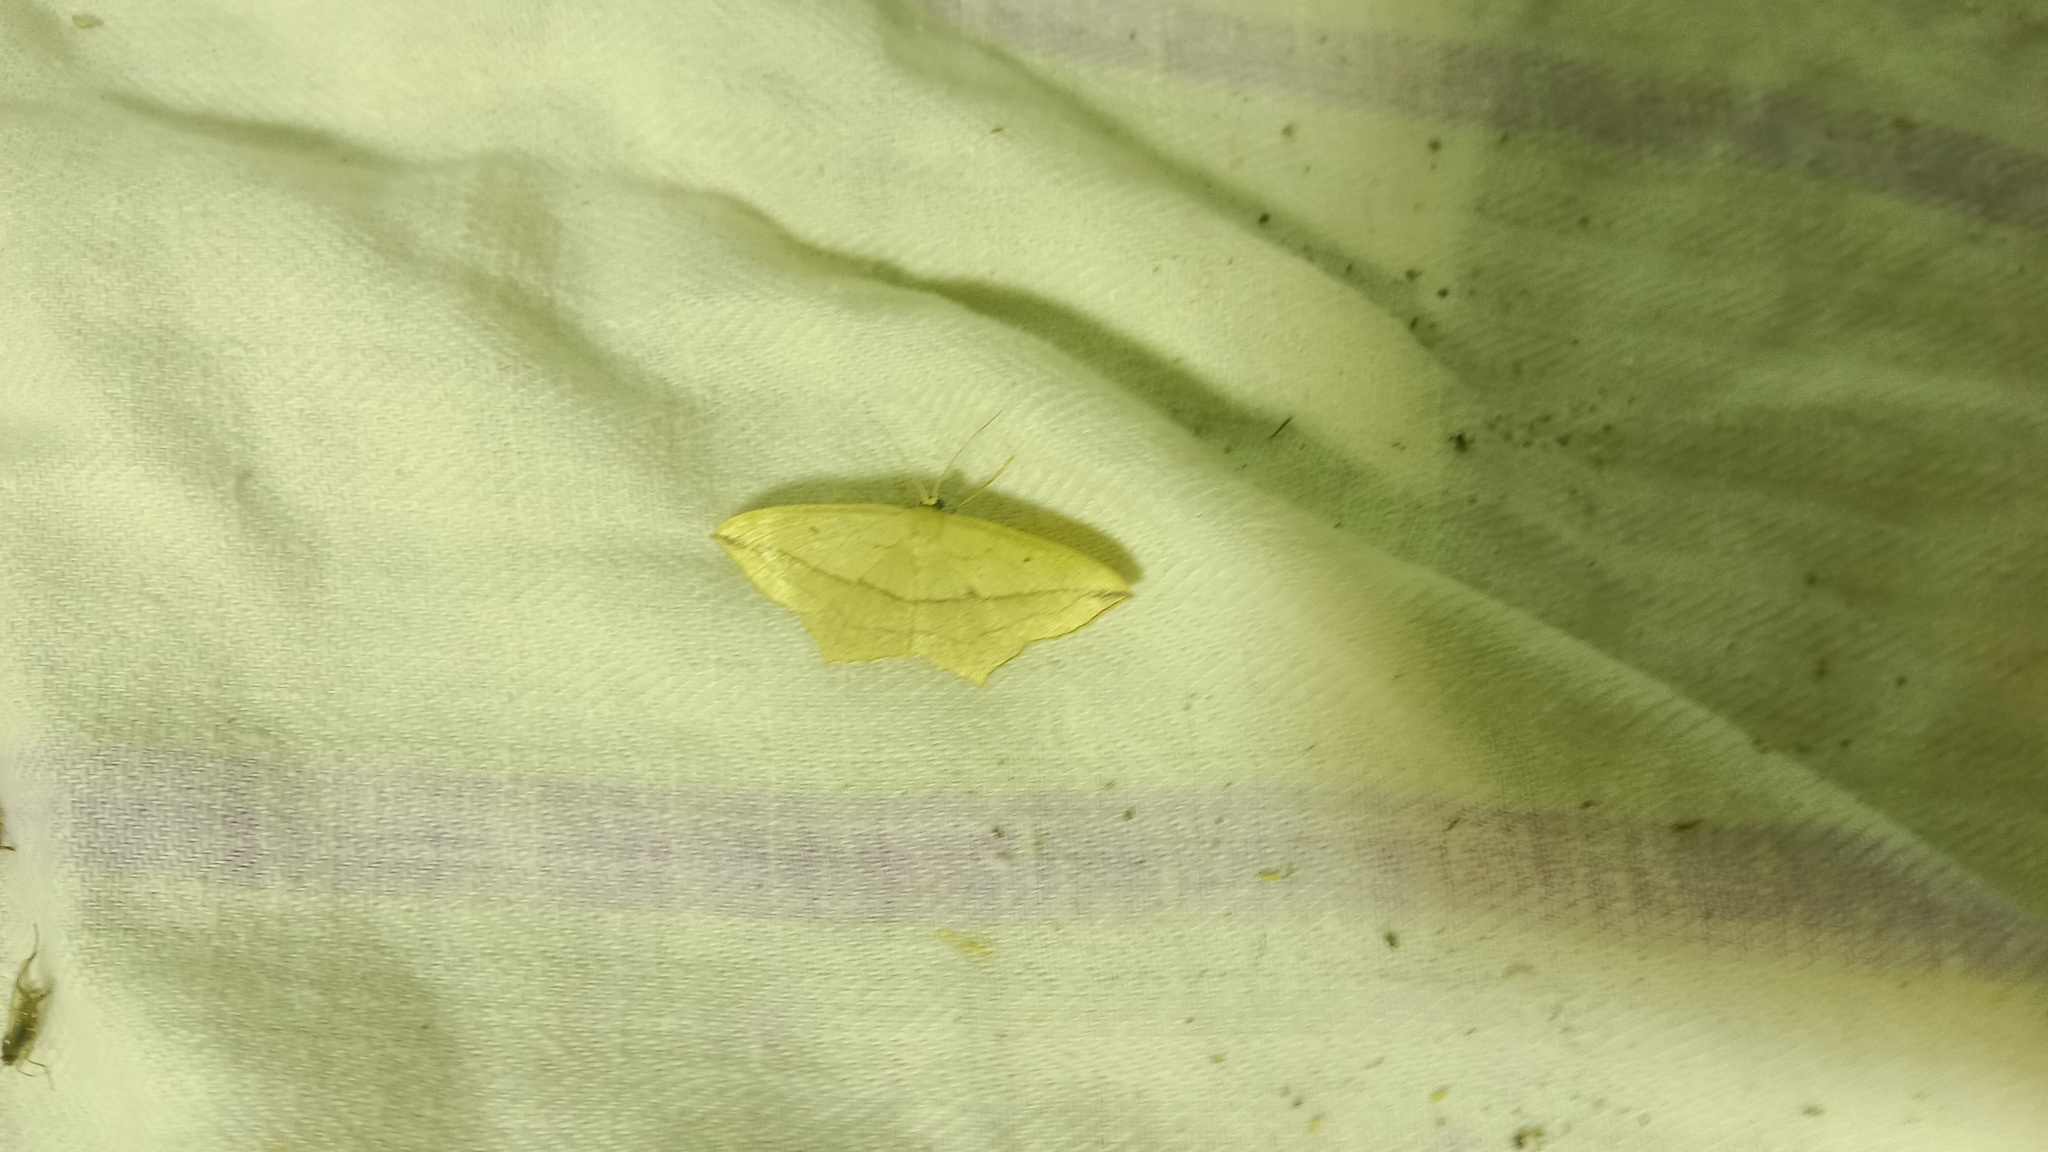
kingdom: Animalia
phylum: Arthropoda
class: Insecta
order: Lepidoptera
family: Geometridae
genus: Timandra
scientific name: Timandra comae
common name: Blood-vein
